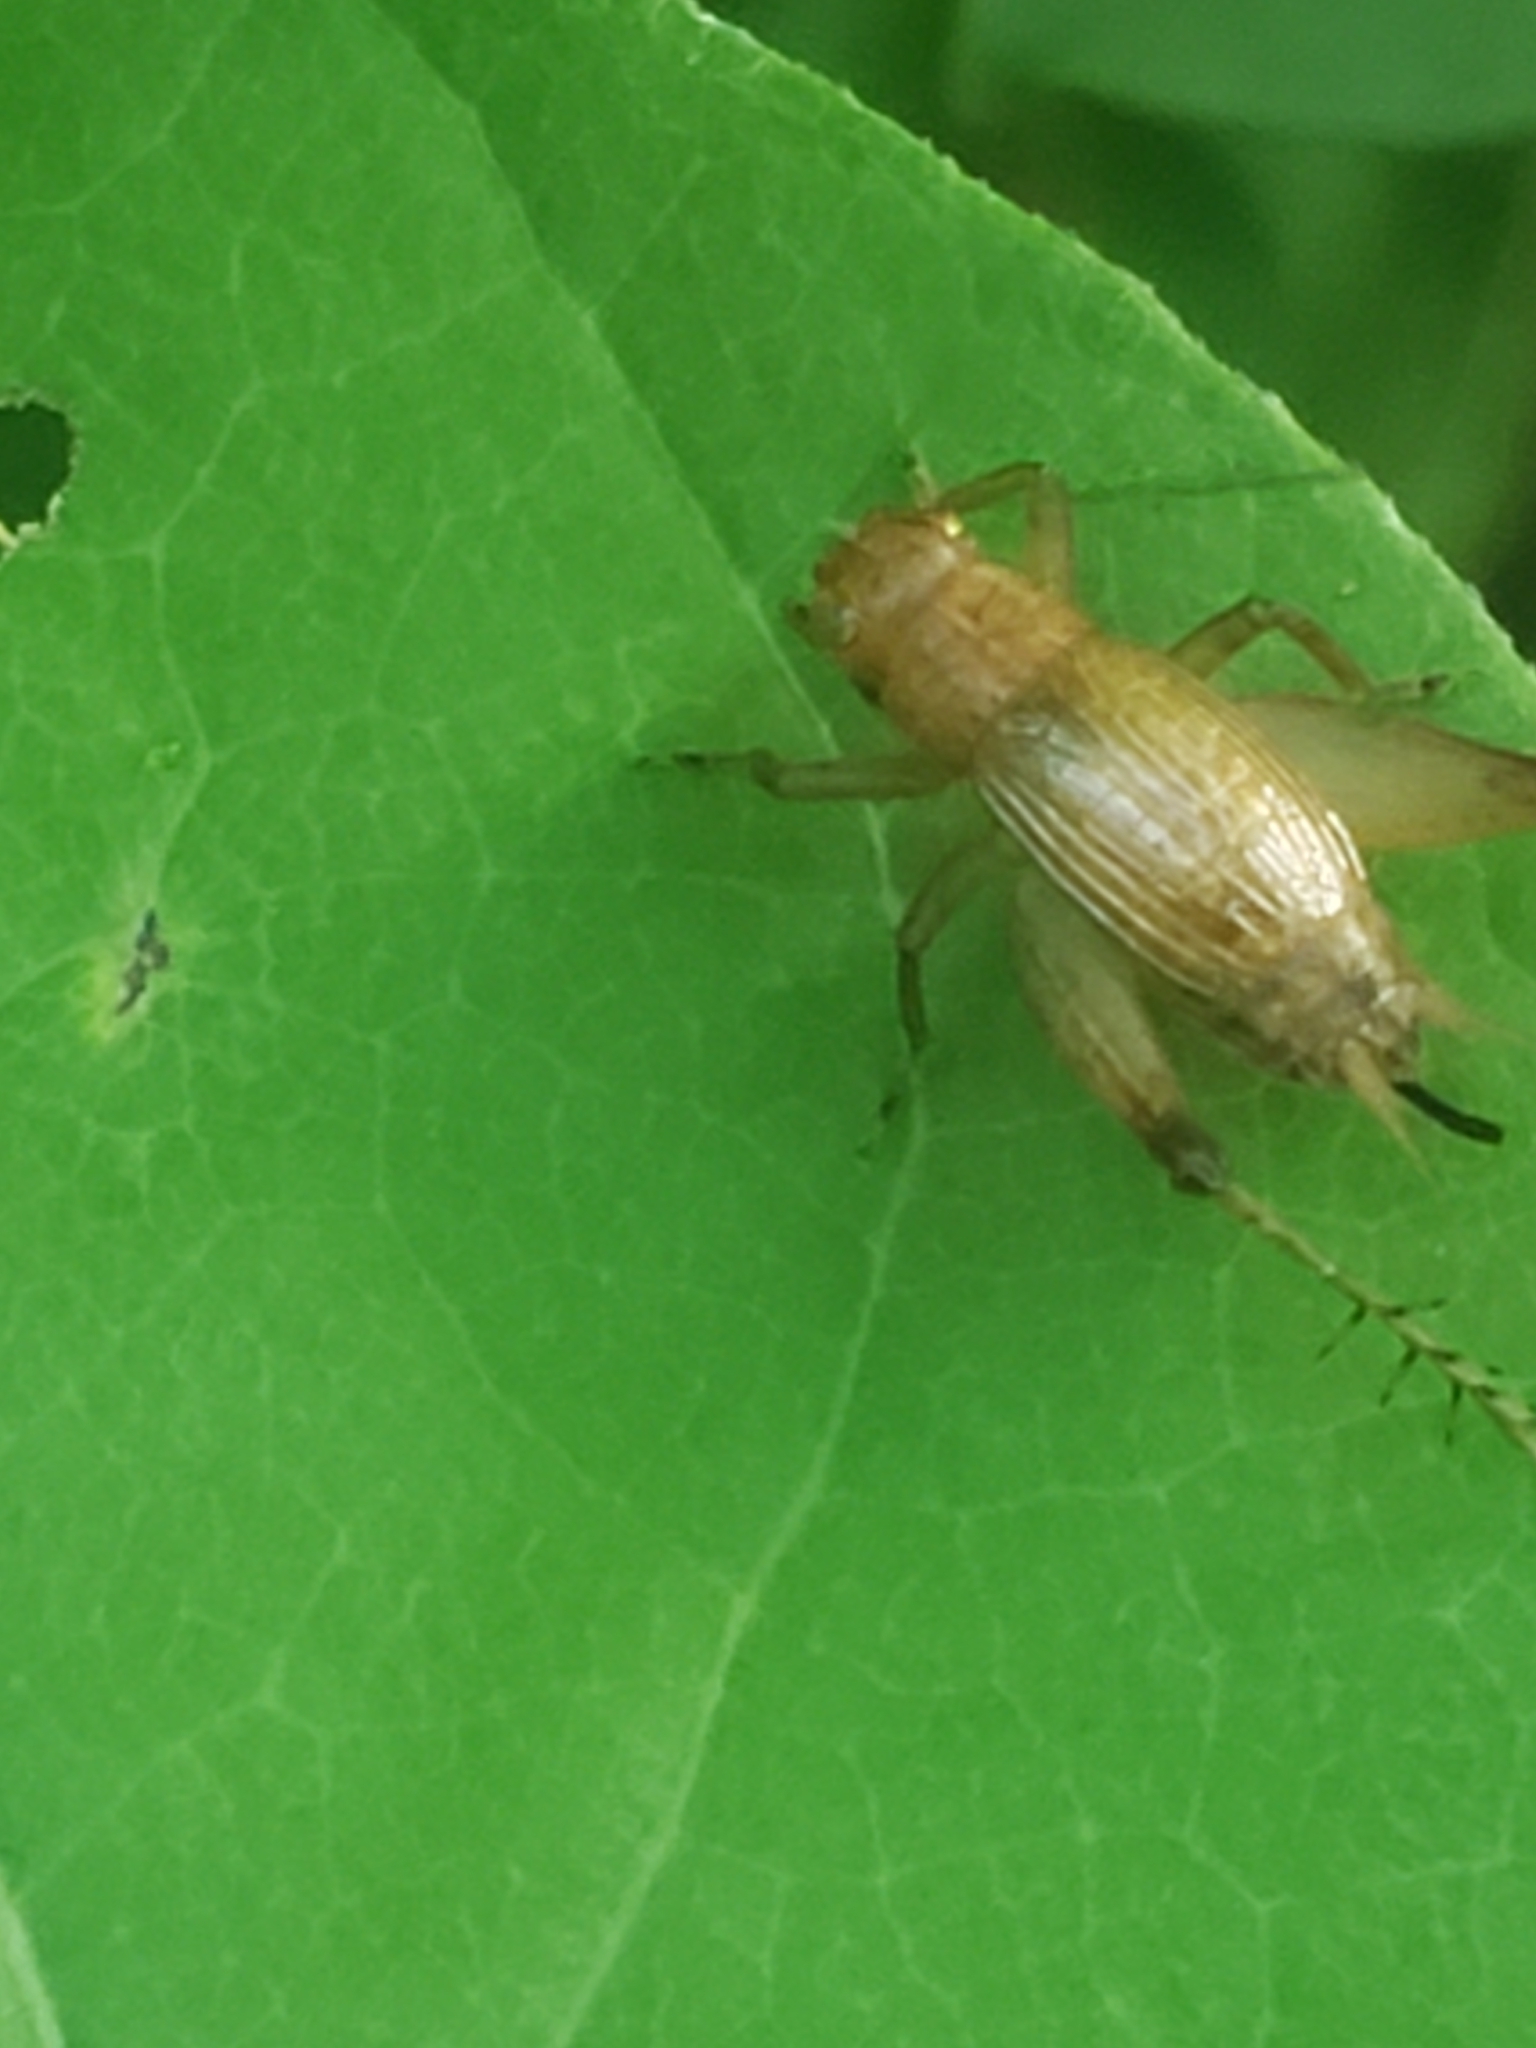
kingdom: Animalia
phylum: Arthropoda
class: Insecta
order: Orthoptera
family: Trigonidiidae
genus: Anaxipha
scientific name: Anaxipha vernalis
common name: Spring trig
